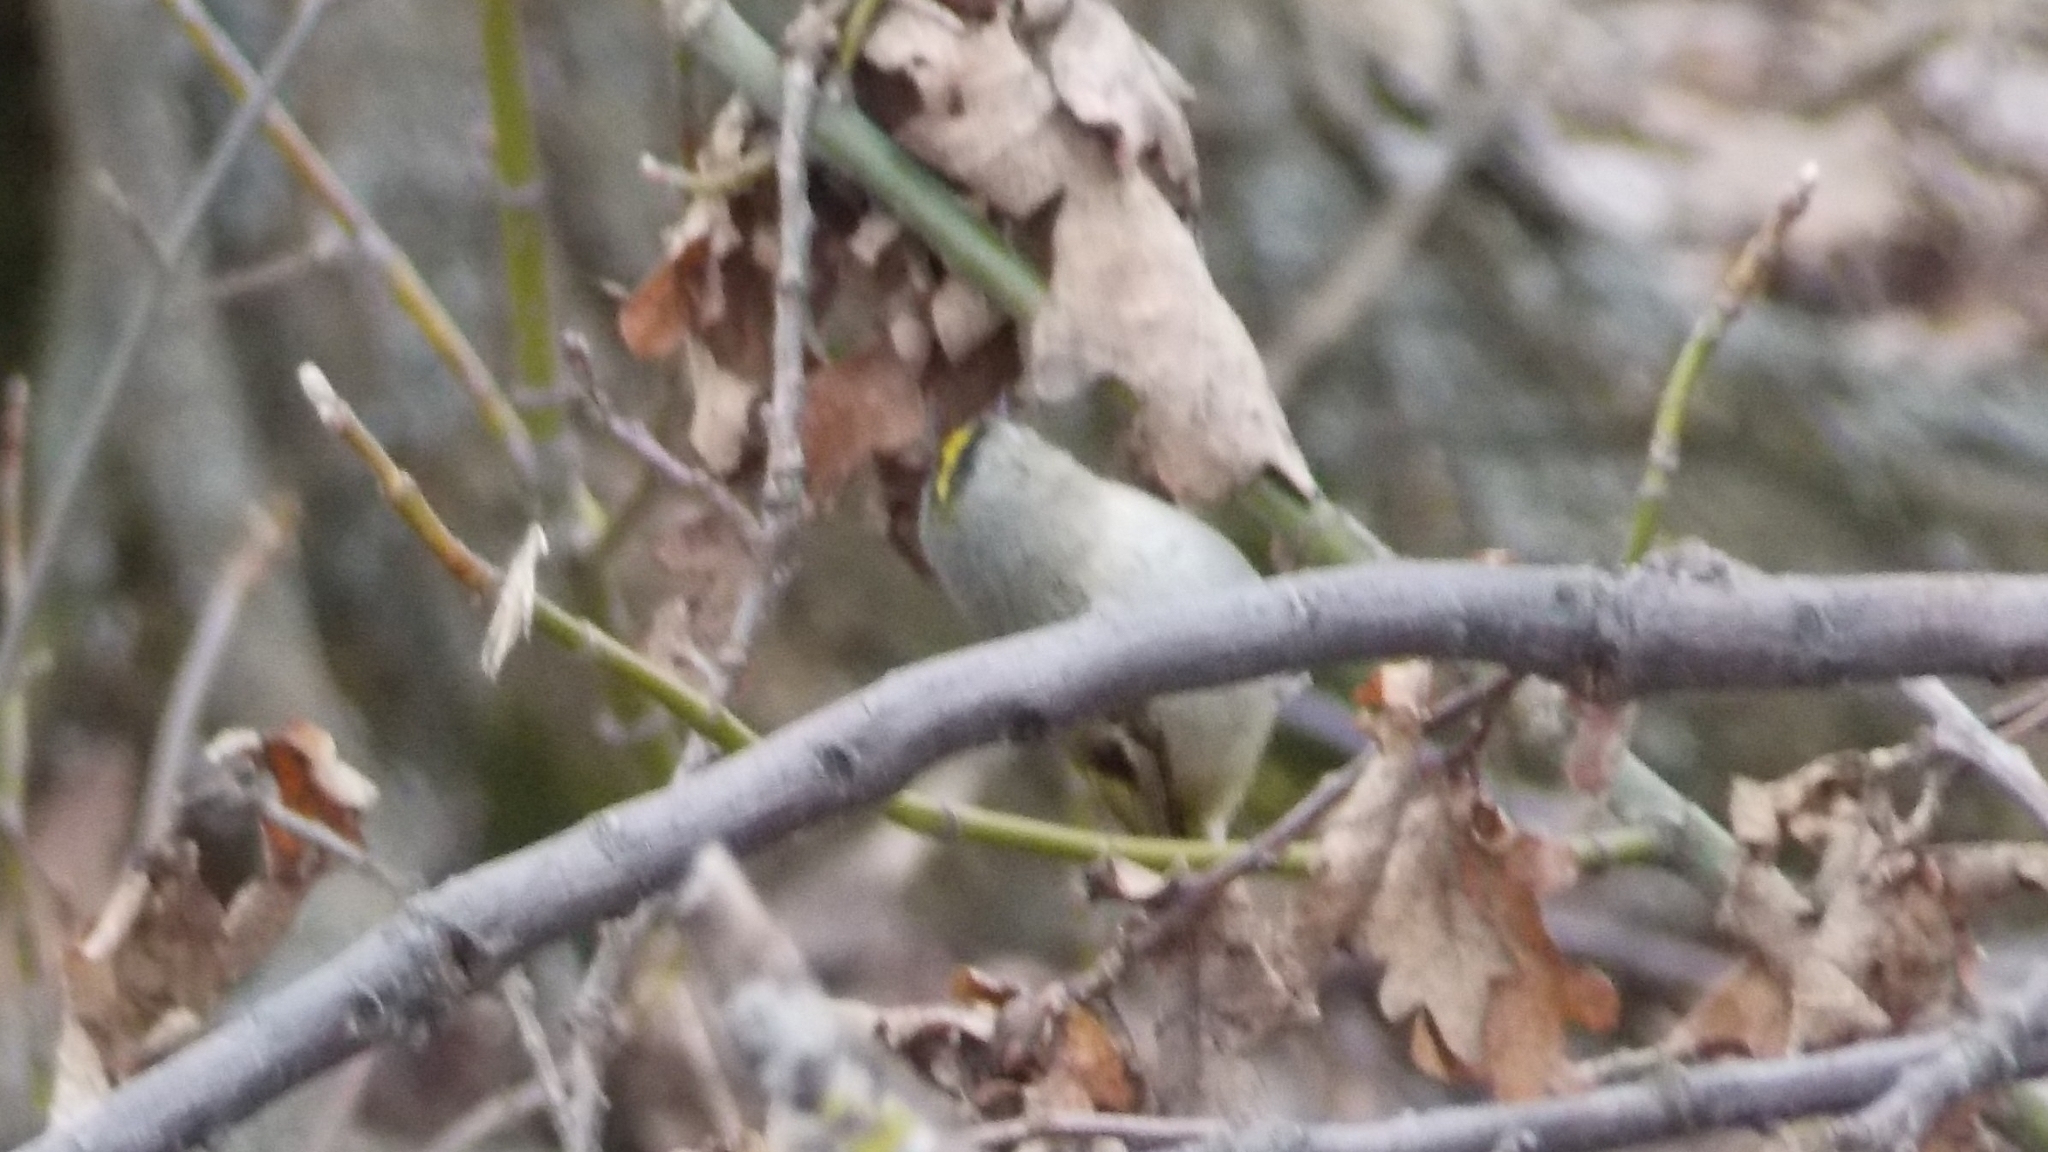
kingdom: Animalia
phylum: Chordata
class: Aves
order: Passeriformes
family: Regulidae
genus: Regulus
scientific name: Regulus regulus
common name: Goldcrest
